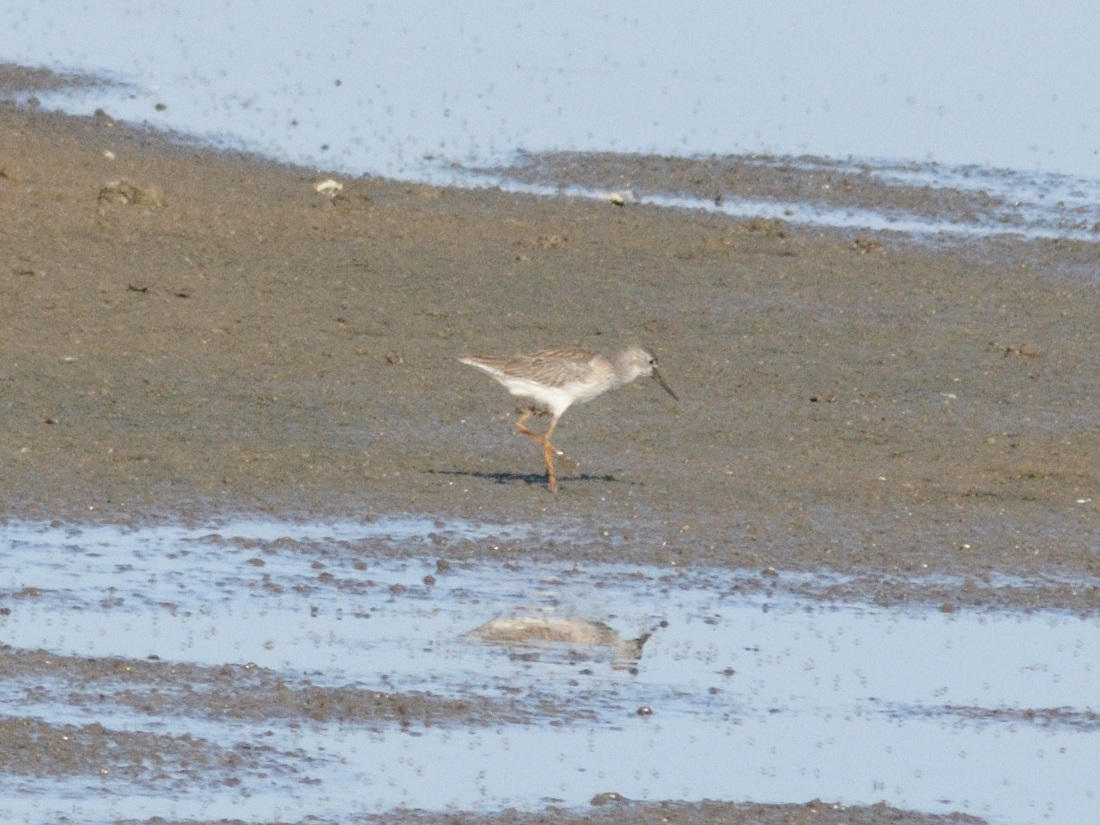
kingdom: Animalia
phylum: Chordata
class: Aves
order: Charadriiformes
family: Scolopacidae
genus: Tringa
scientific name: Tringa totanus
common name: Common redshank
